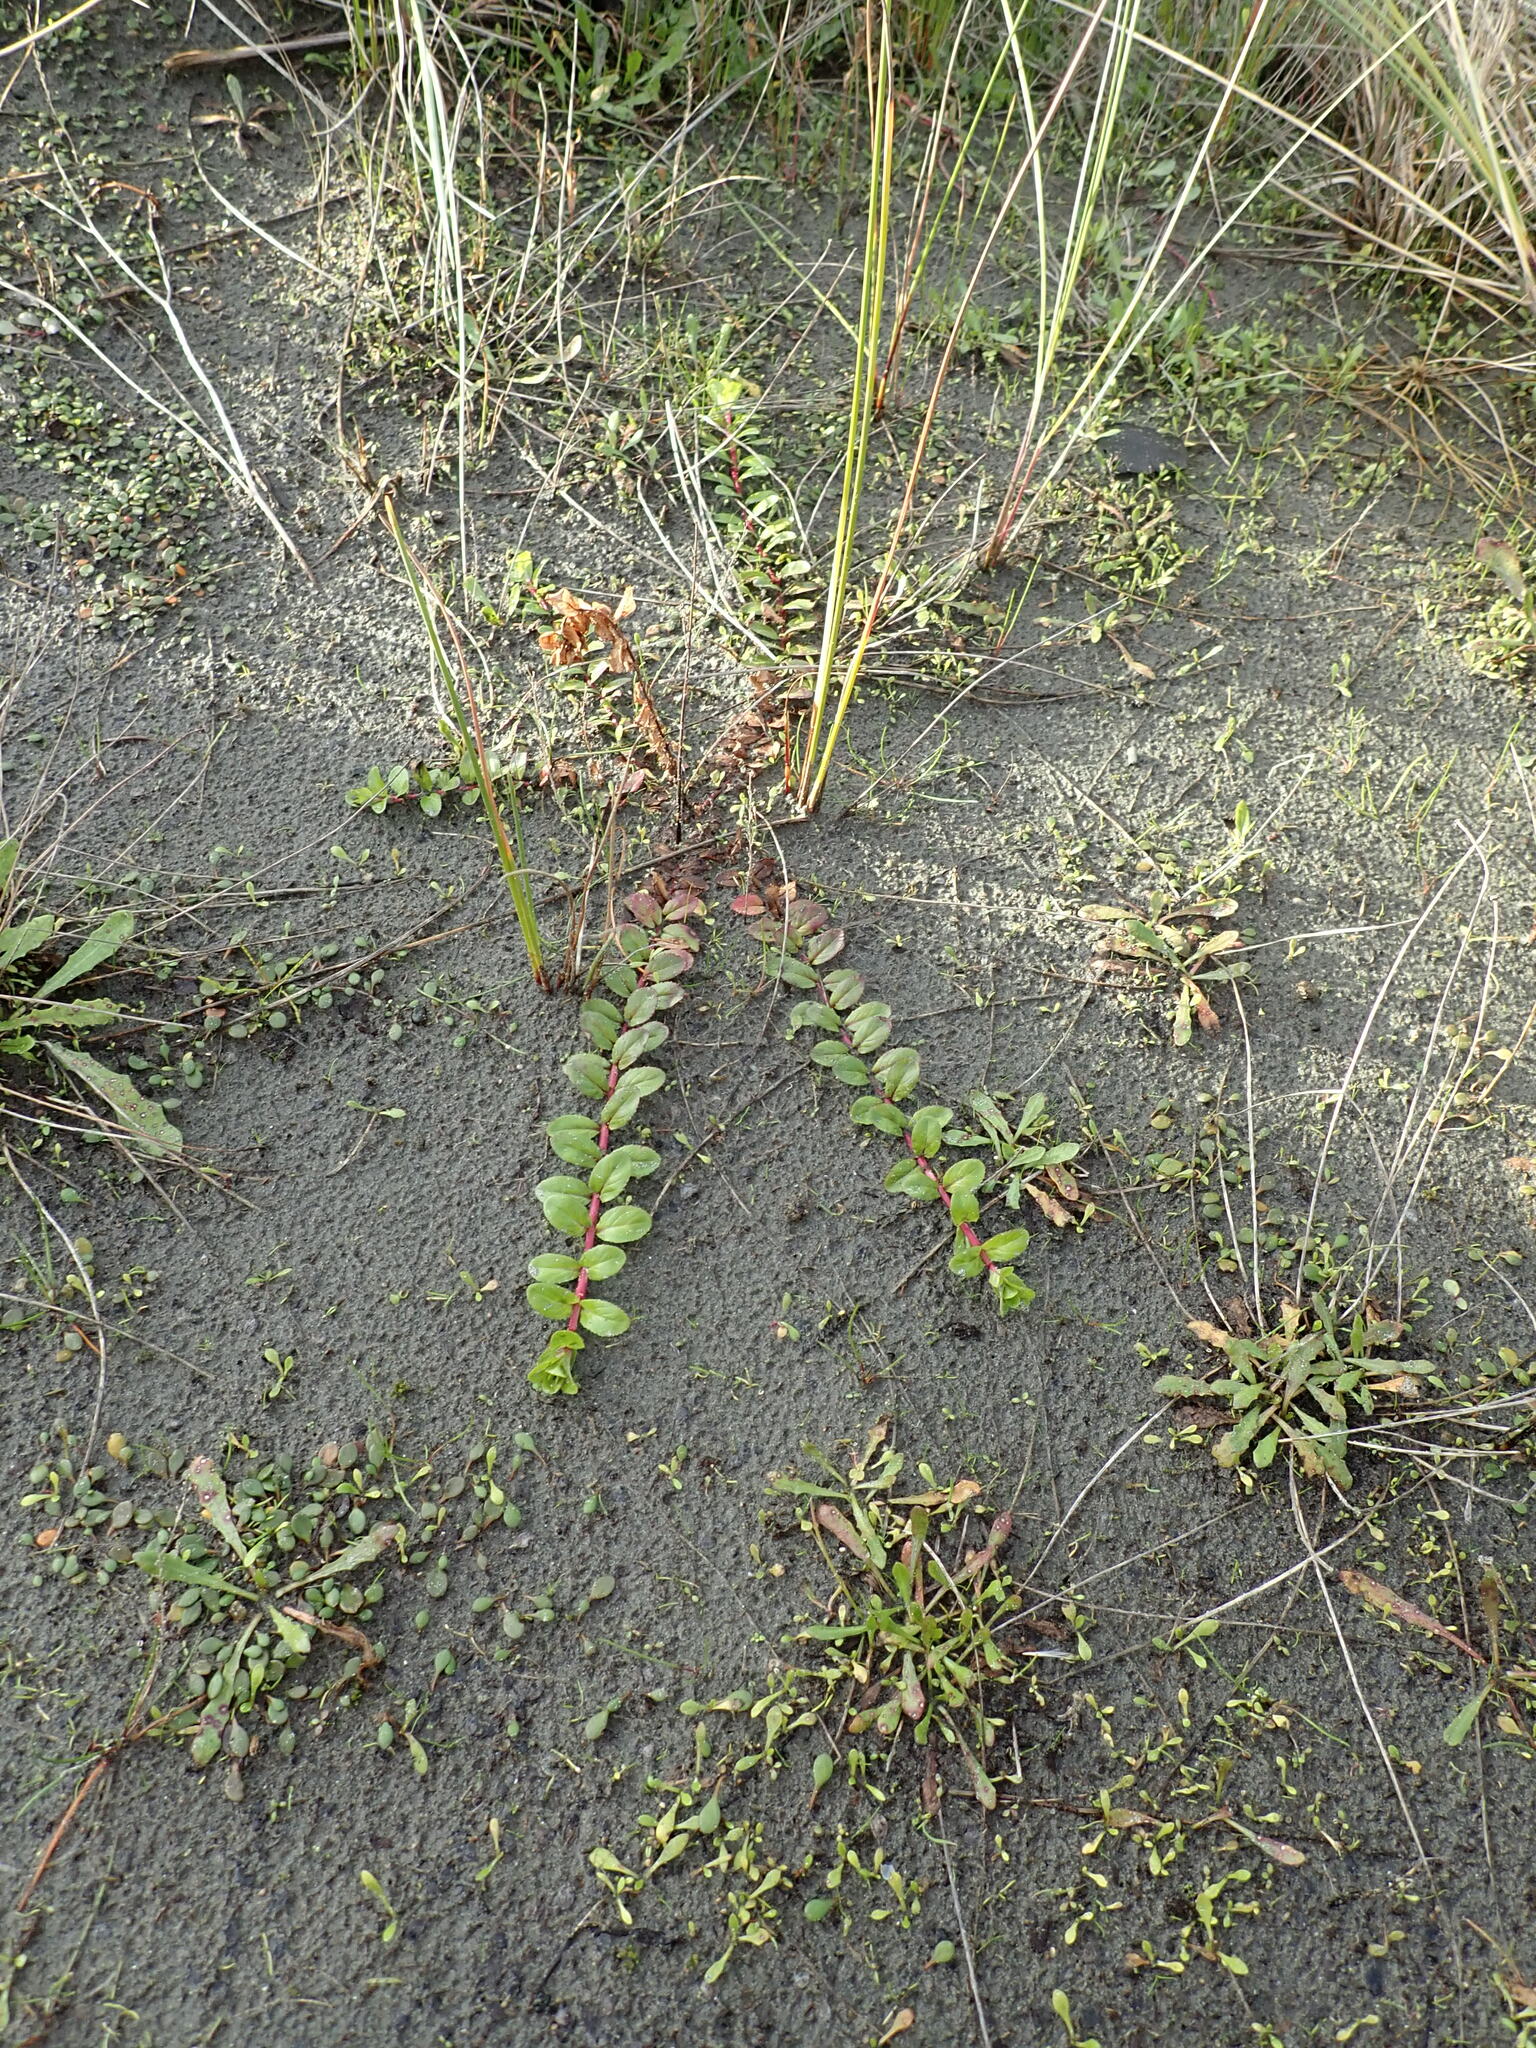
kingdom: Plantae
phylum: Tracheophyta
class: Magnoliopsida
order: Myrtales
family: Onagraceae
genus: Epilobium
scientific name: Epilobium billardiereanum
